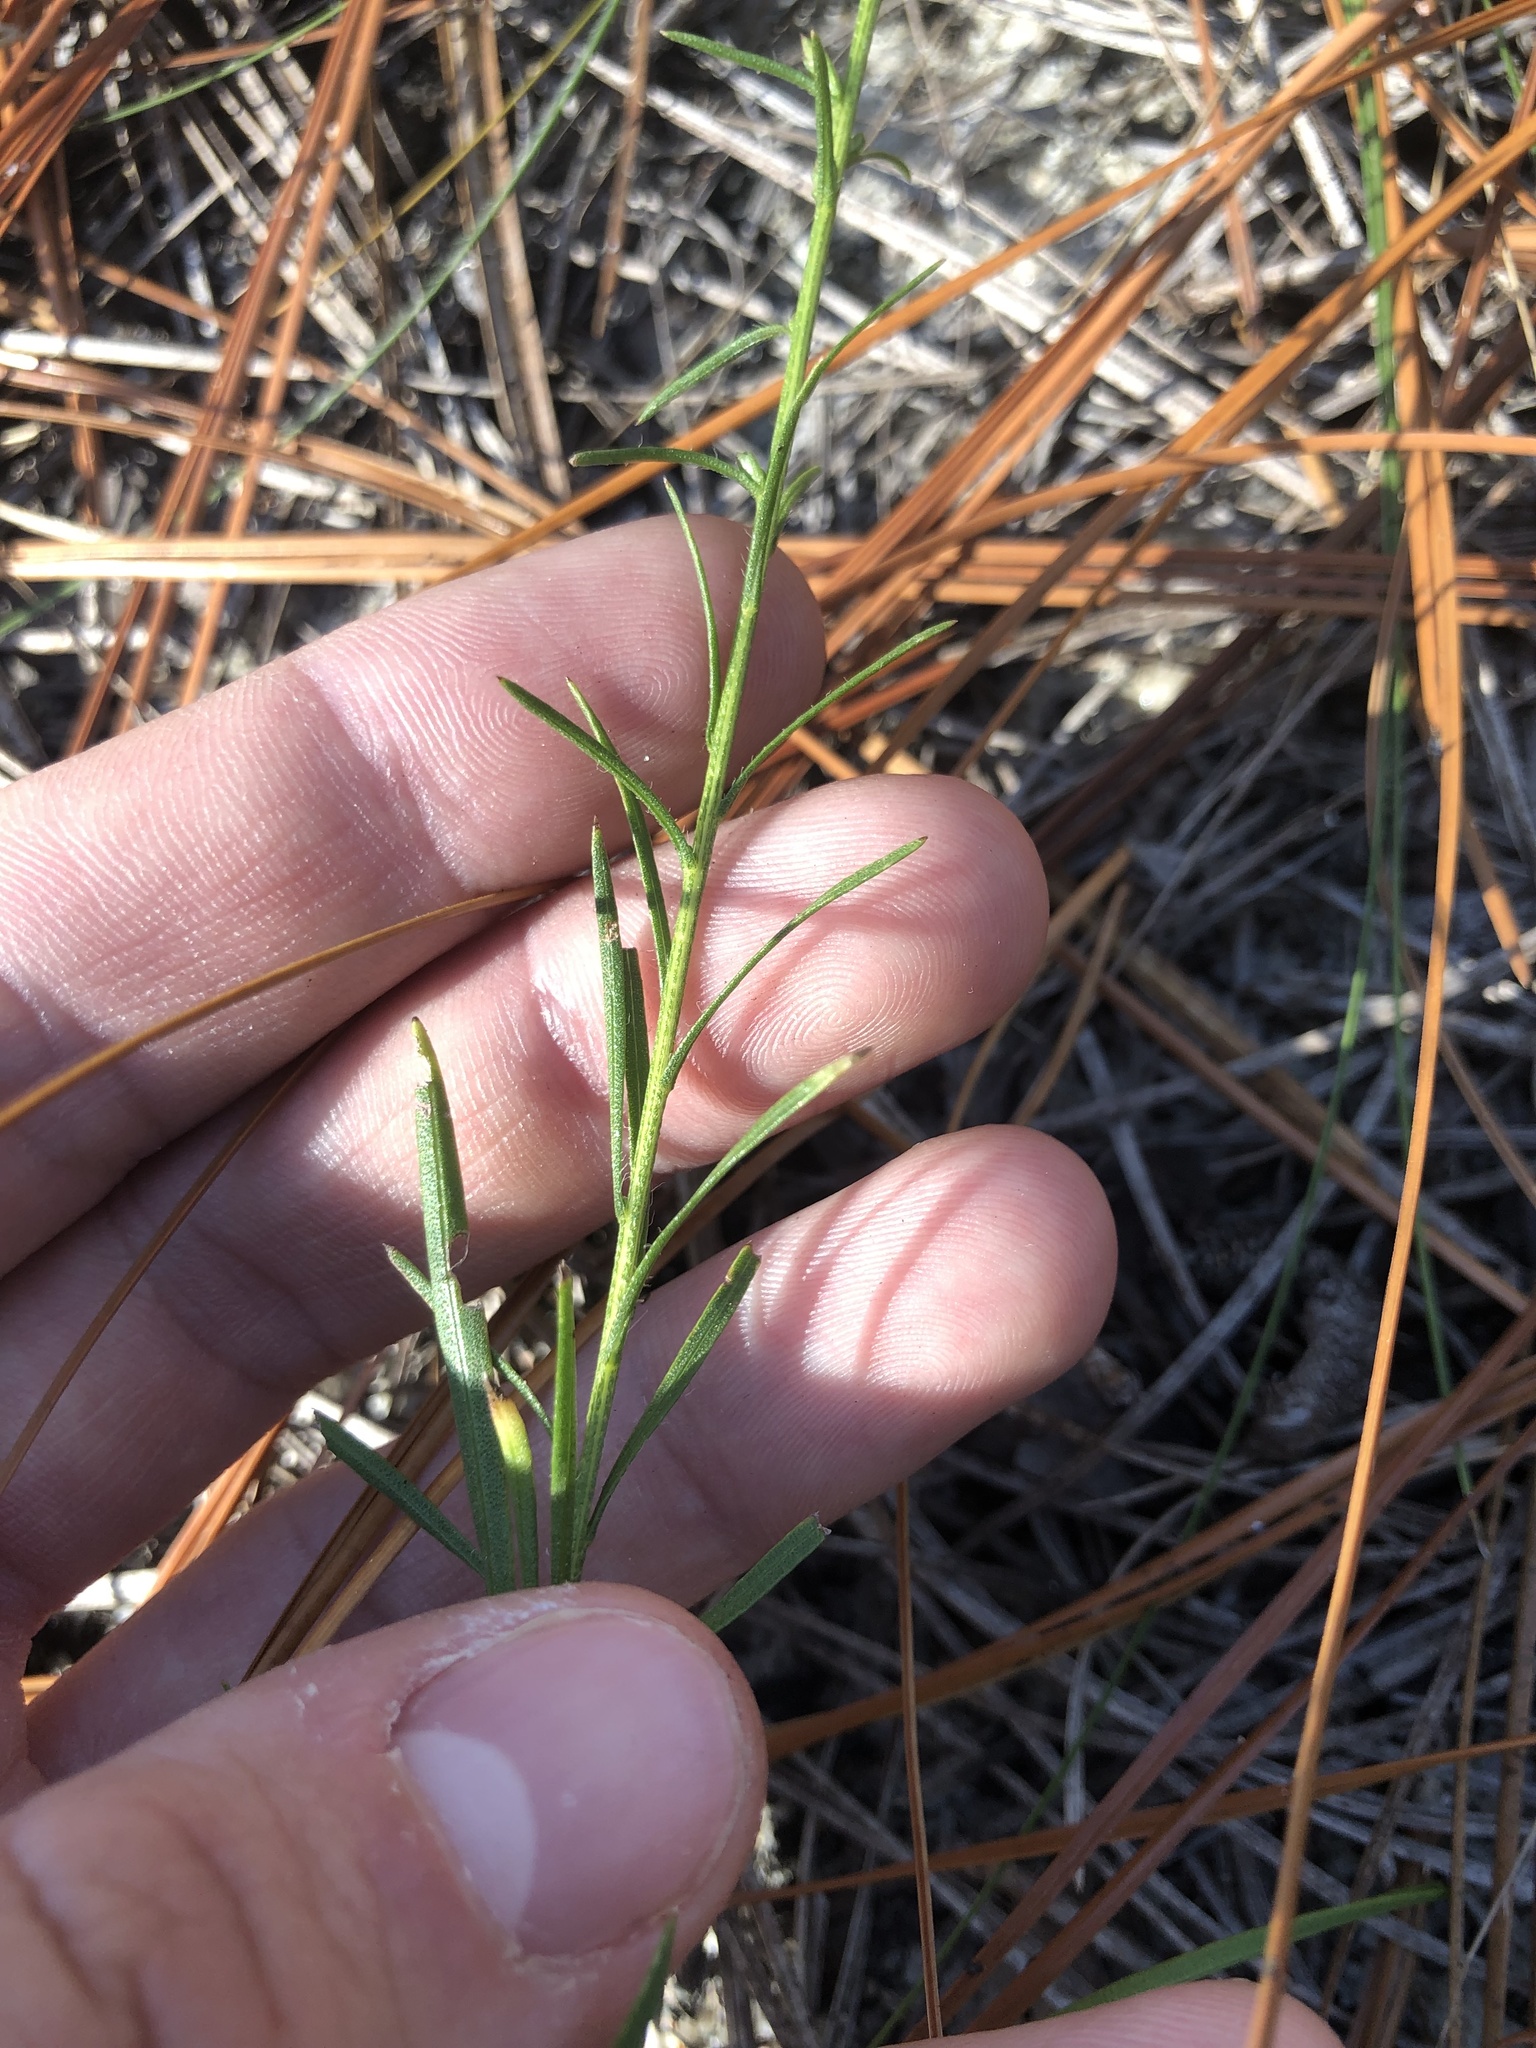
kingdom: Plantae
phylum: Tracheophyta
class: Magnoliopsida
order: Asterales
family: Asteraceae
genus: Liatris
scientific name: Liatris cokeri
